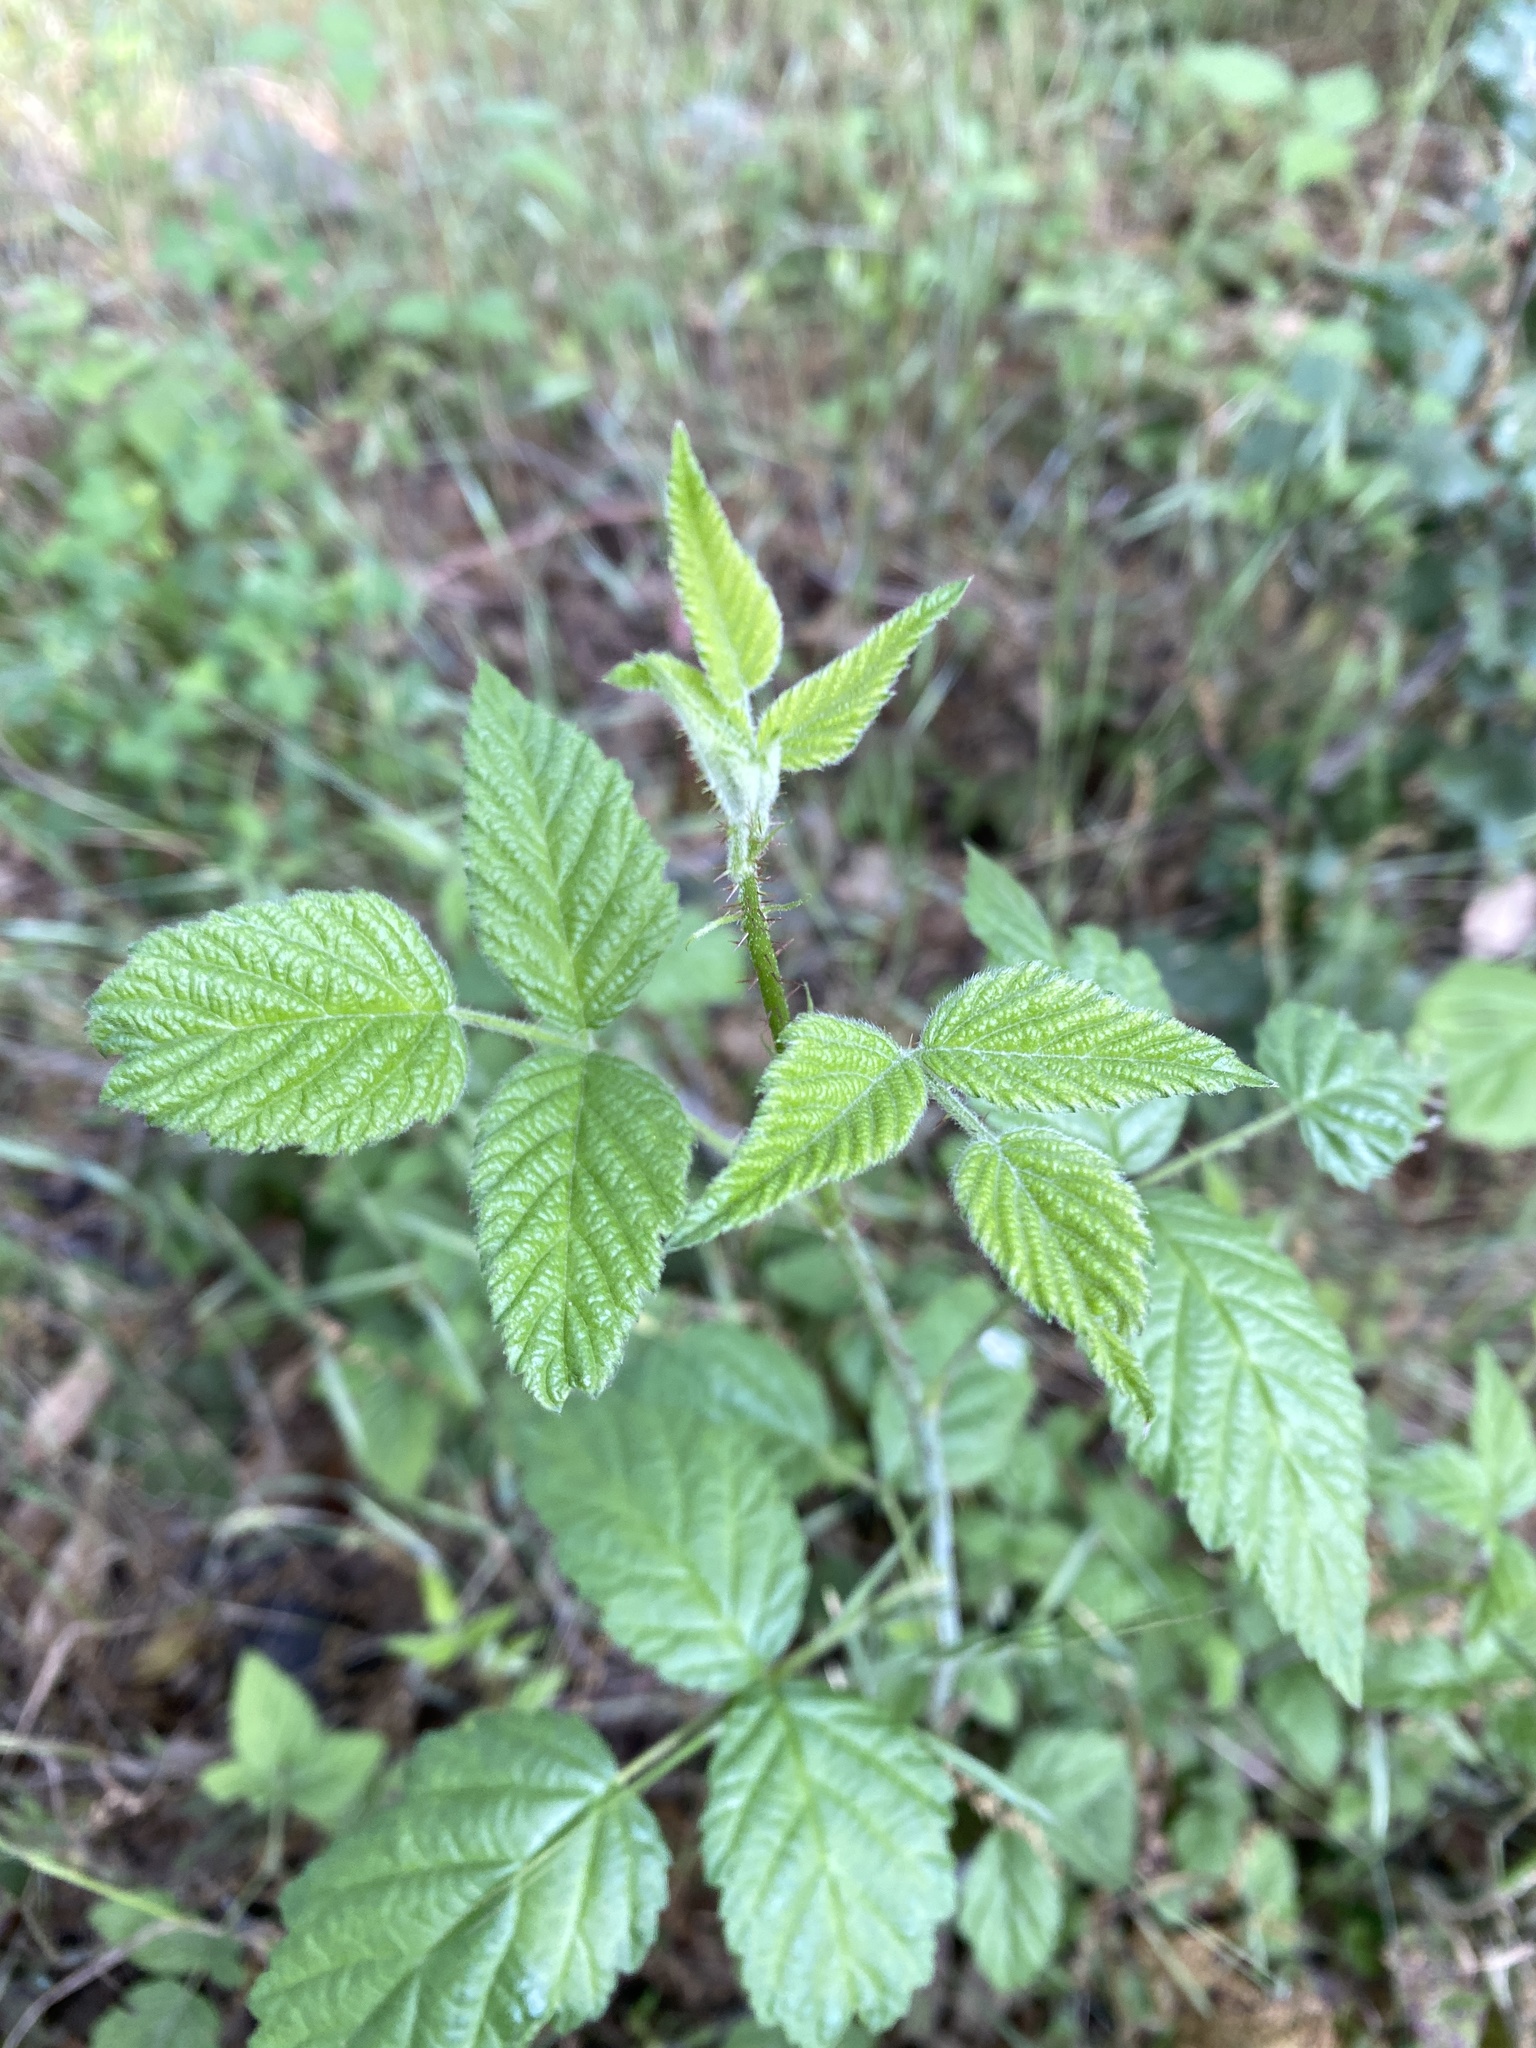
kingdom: Plantae
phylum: Tracheophyta
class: Magnoliopsida
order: Rosales
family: Rosaceae
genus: Rubus
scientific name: Rubus ursinus
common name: Pacific blackberry
